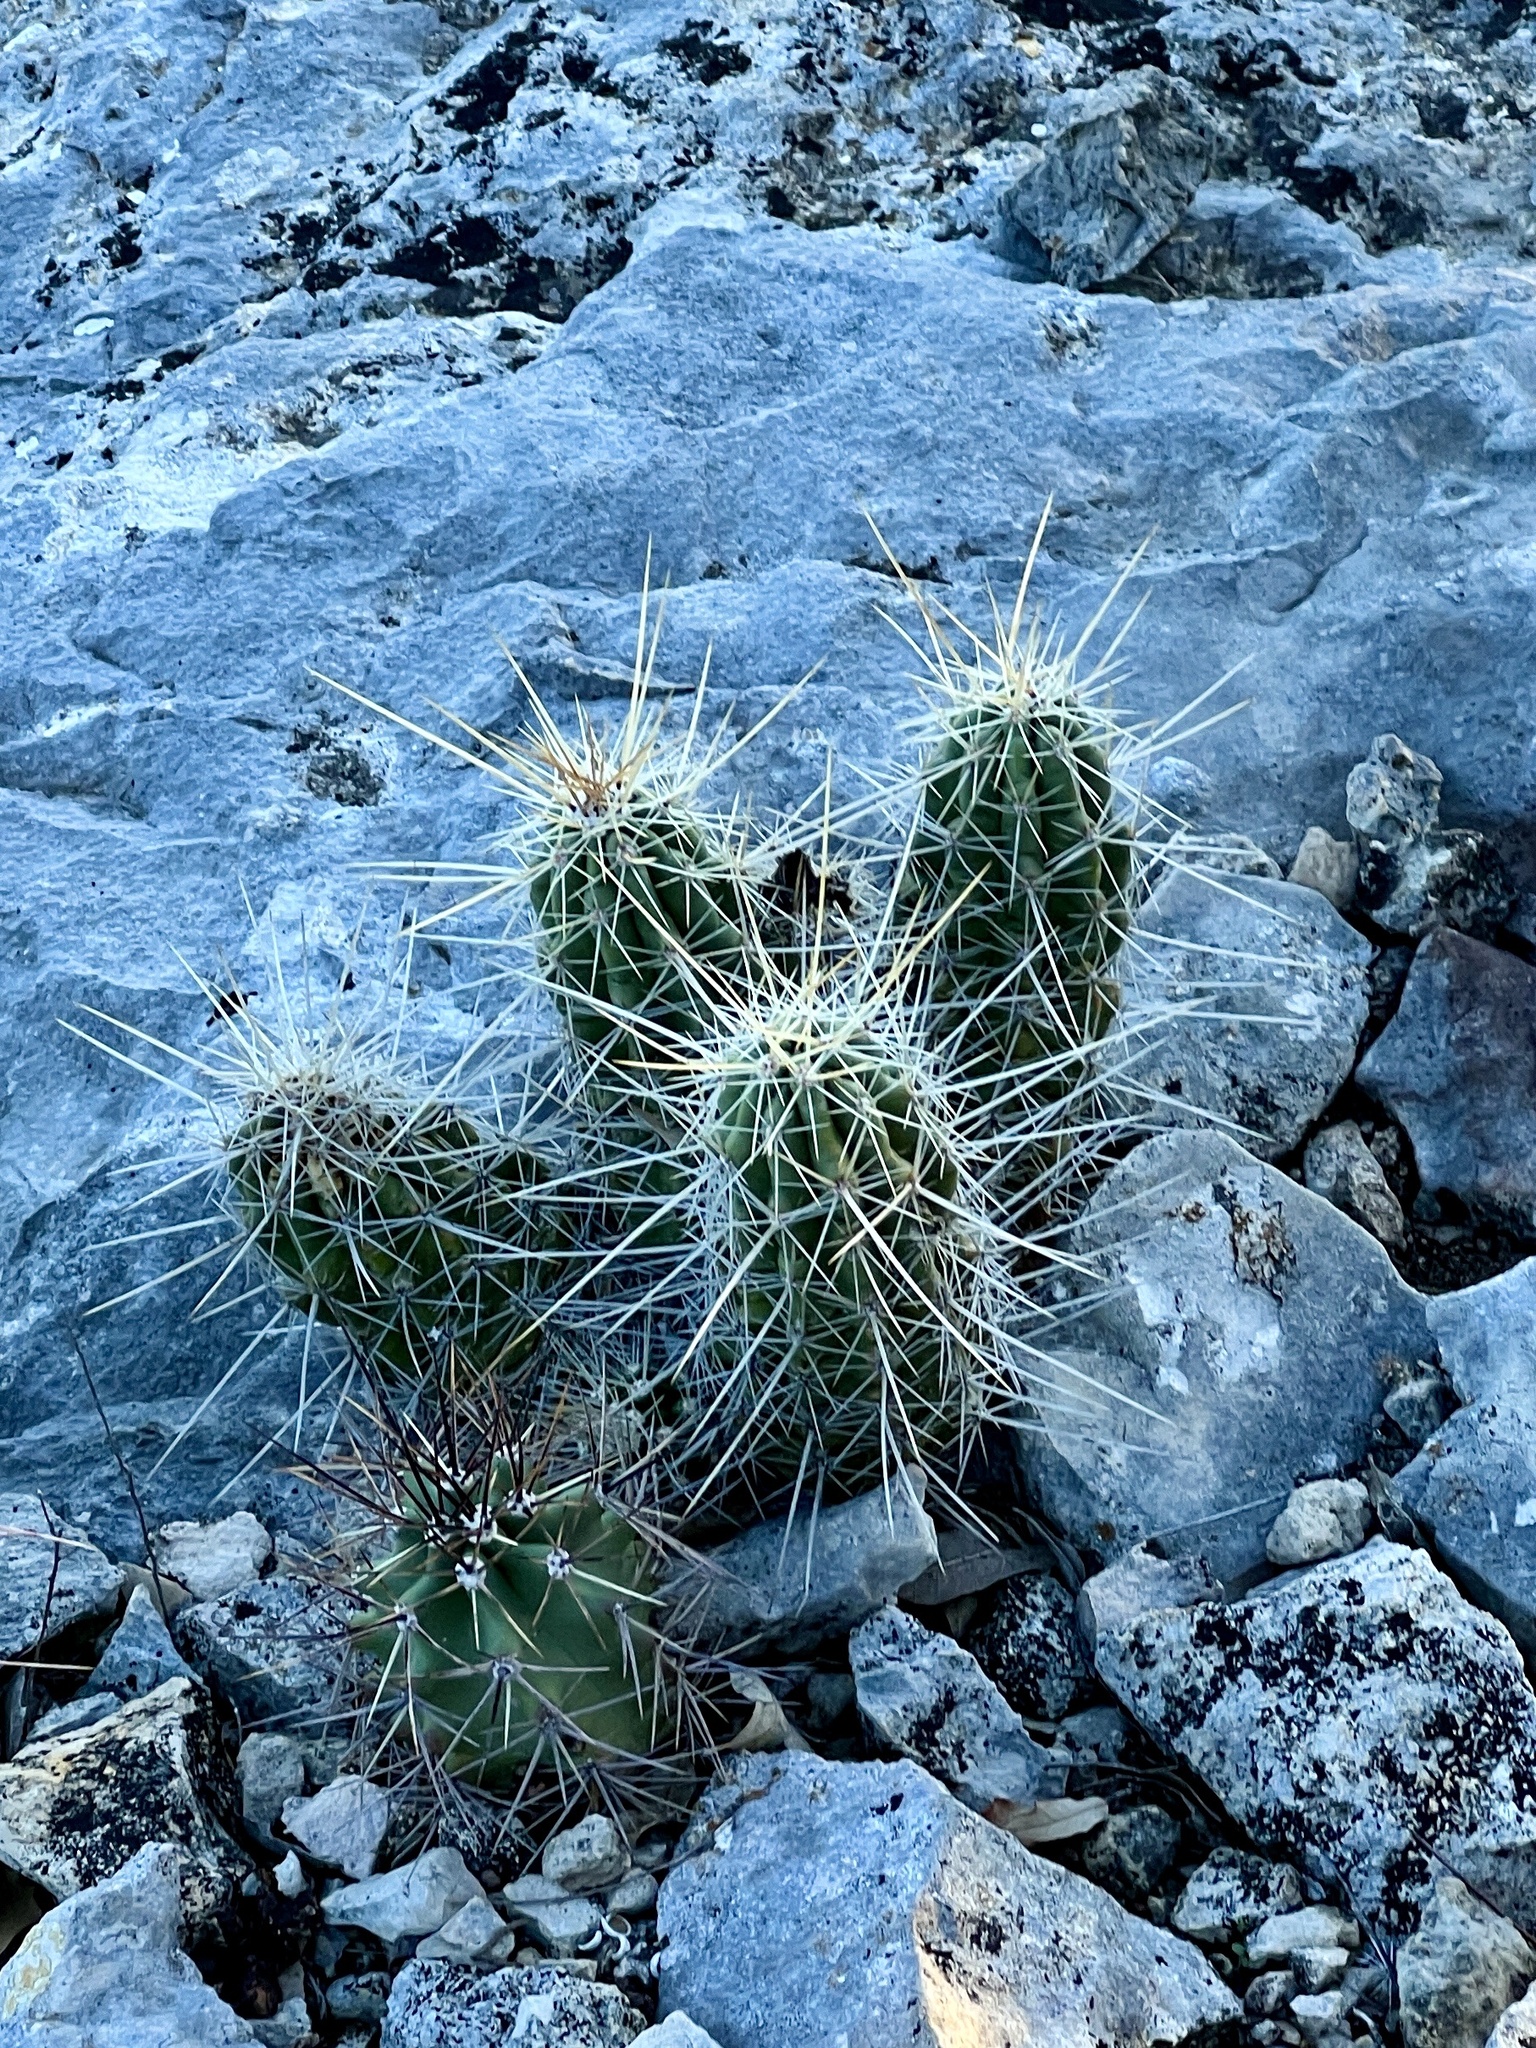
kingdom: Plantae
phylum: Tracheophyta
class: Magnoliopsida
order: Caryophyllales
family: Cactaceae
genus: Echinocereus
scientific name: Echinocereus enneacanthus
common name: Pitaya
